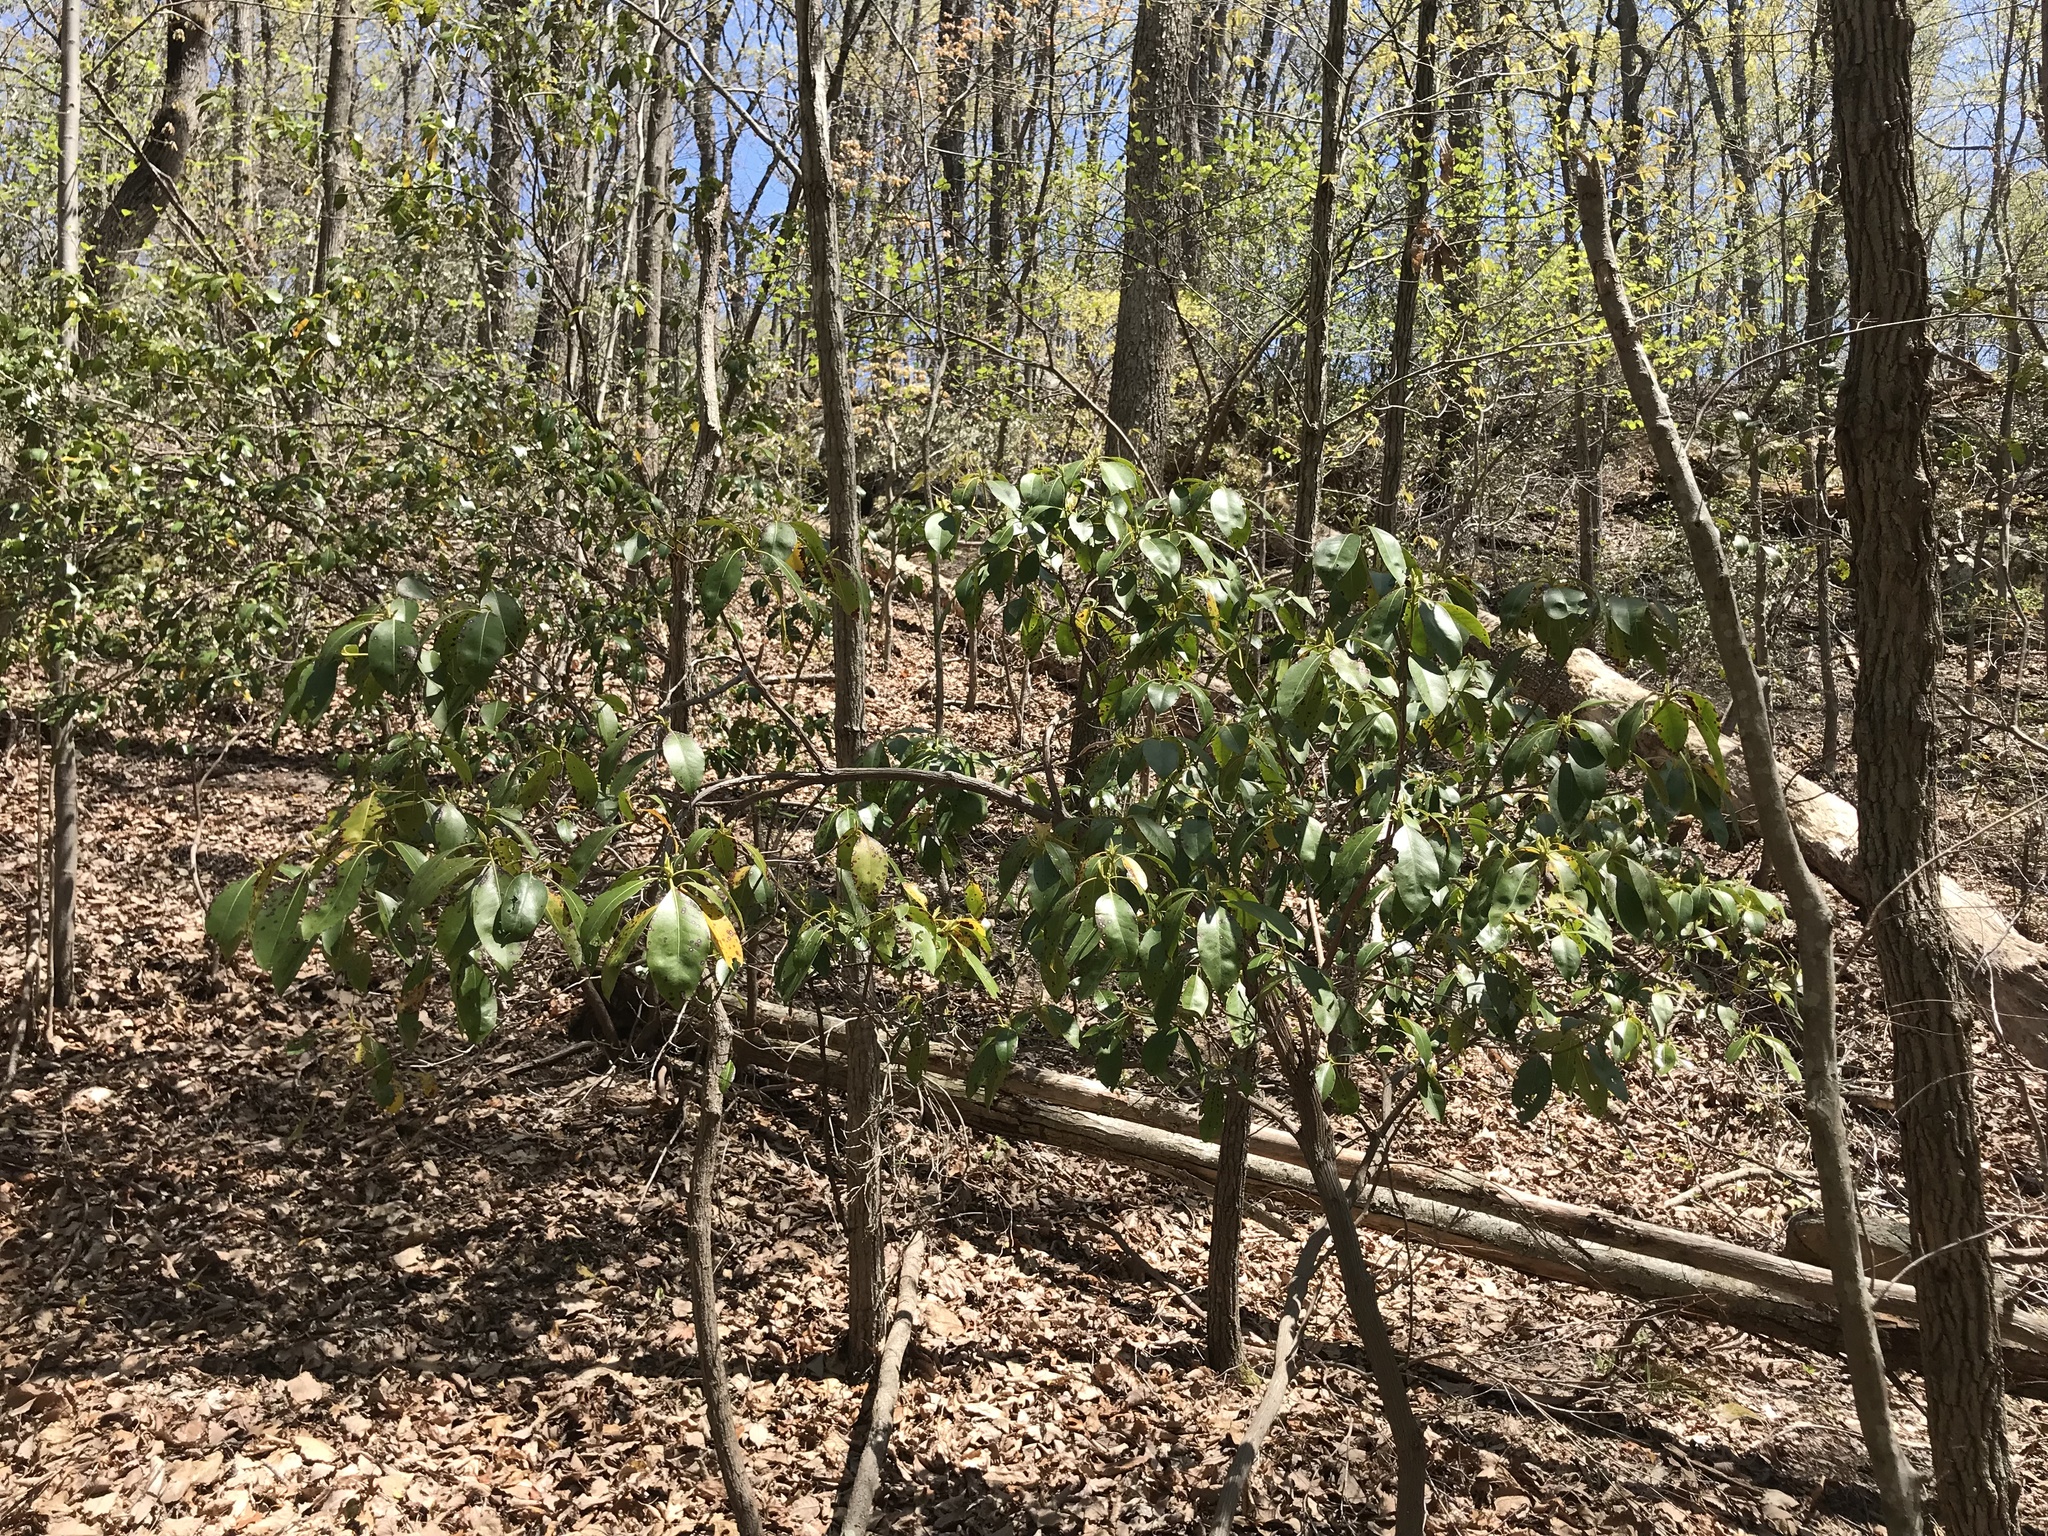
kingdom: Plantae
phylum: Tracheophyta
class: Magnoliopsida
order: Ericales
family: Ericaceae
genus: Kalmia
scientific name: Kalmia latifolia
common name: Mountain-laurel
